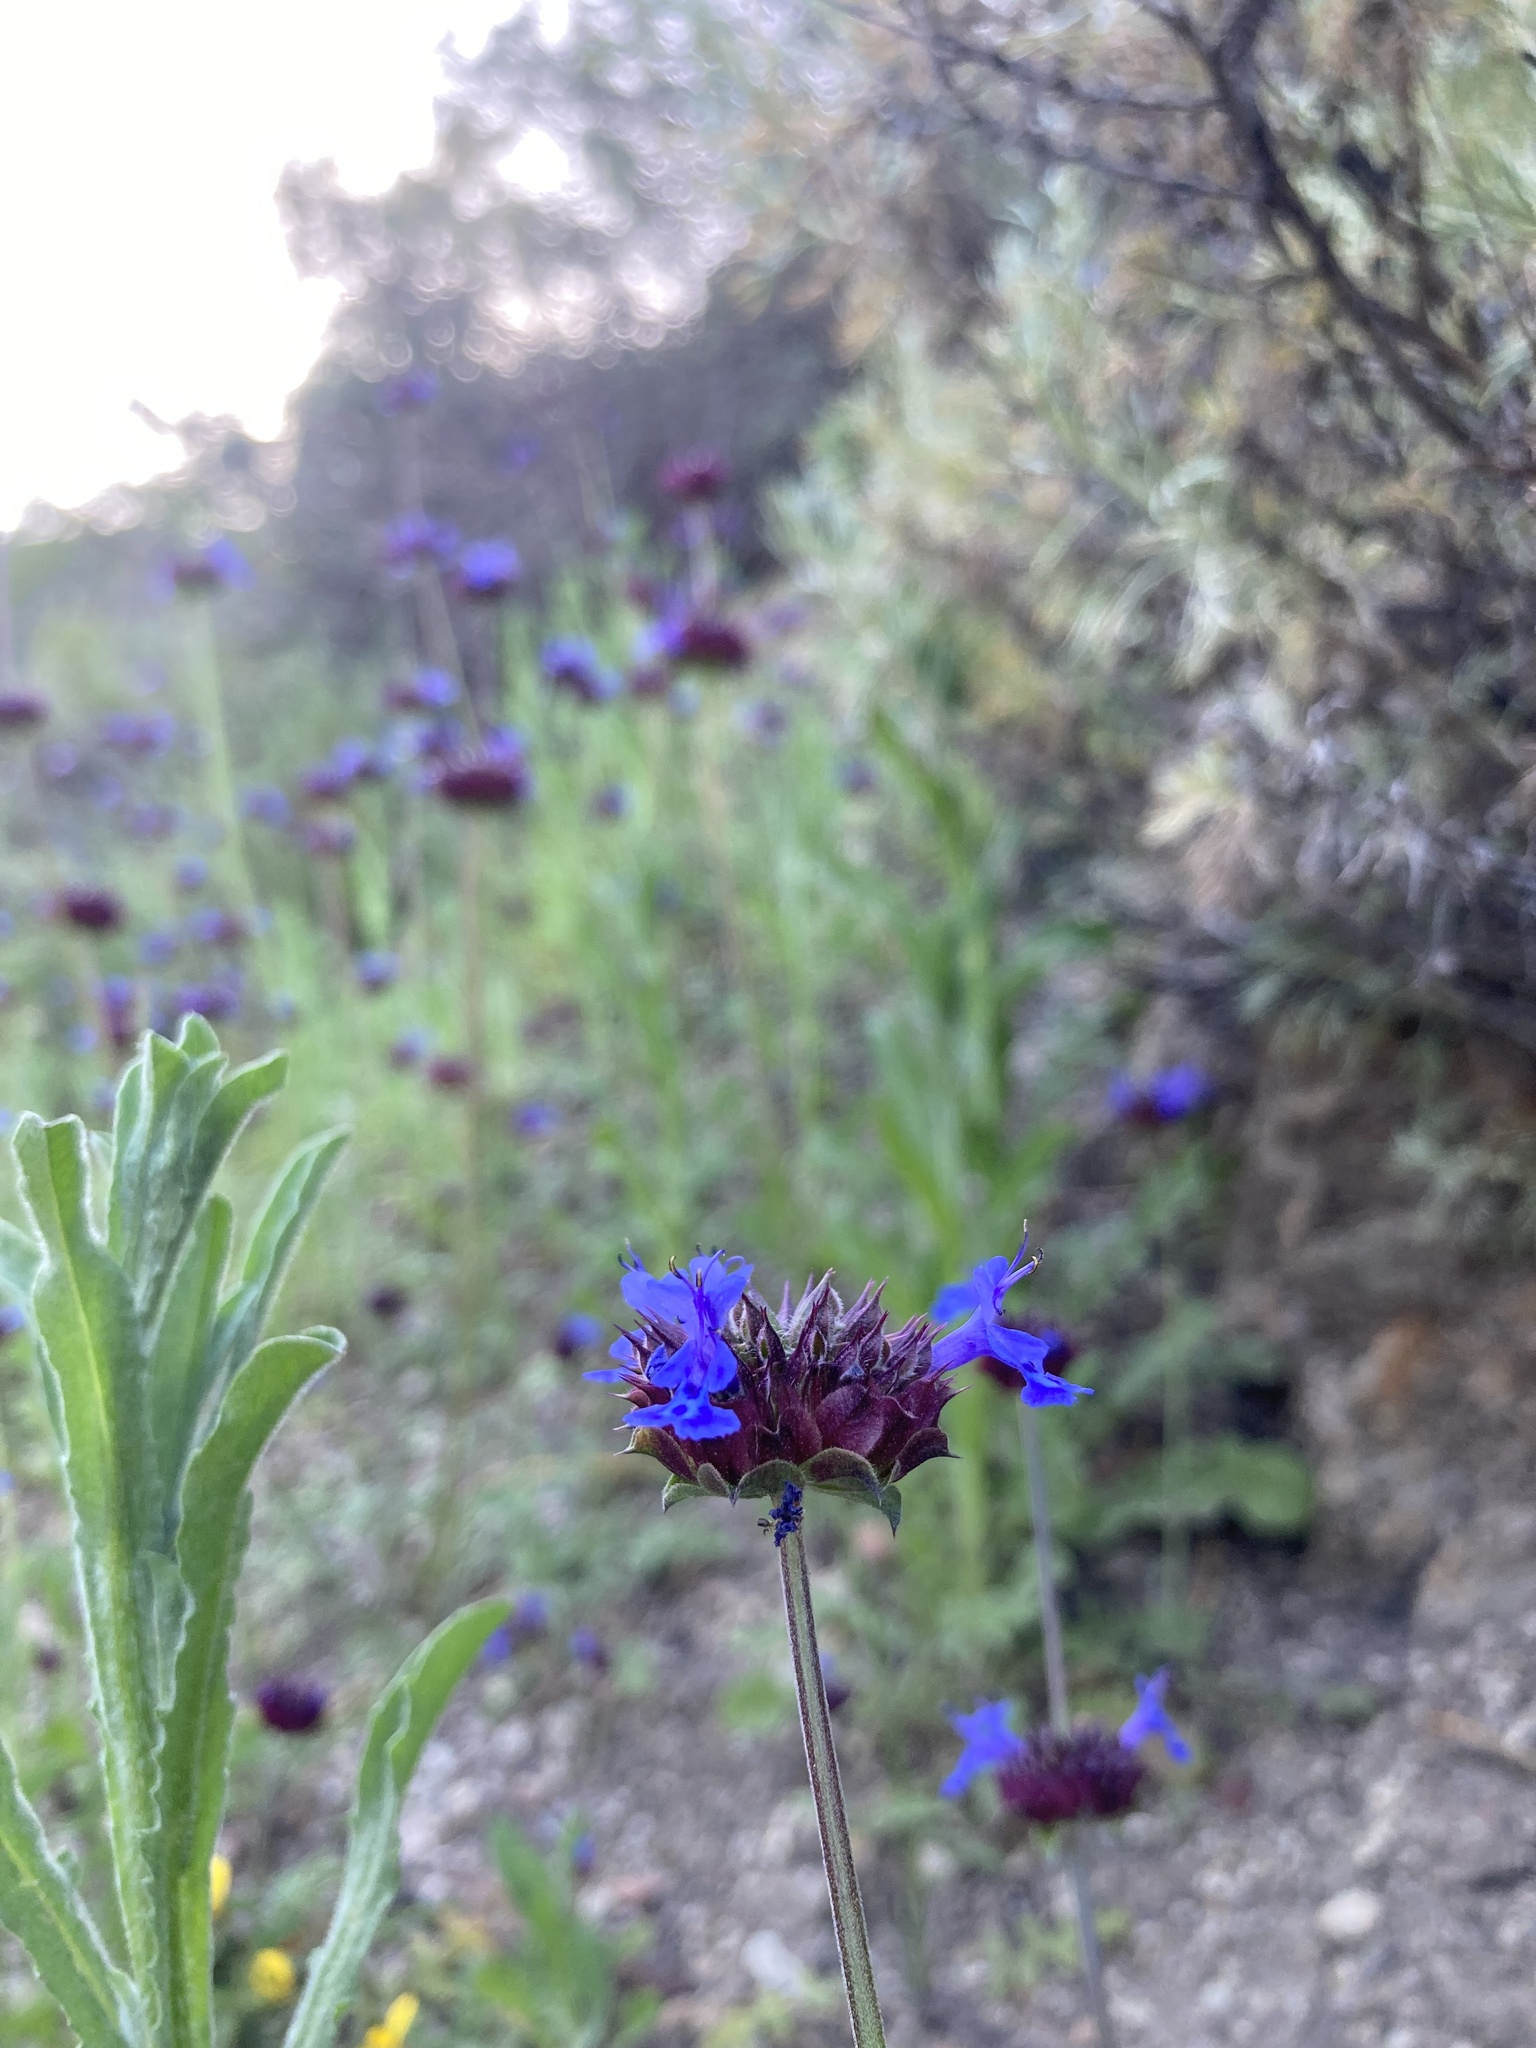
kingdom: Plantae
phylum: Tracheophyta
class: Magnoliopsida
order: Lamiales
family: Lamiaceae
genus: Salvia
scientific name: Salvia columbariae
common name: Chia
